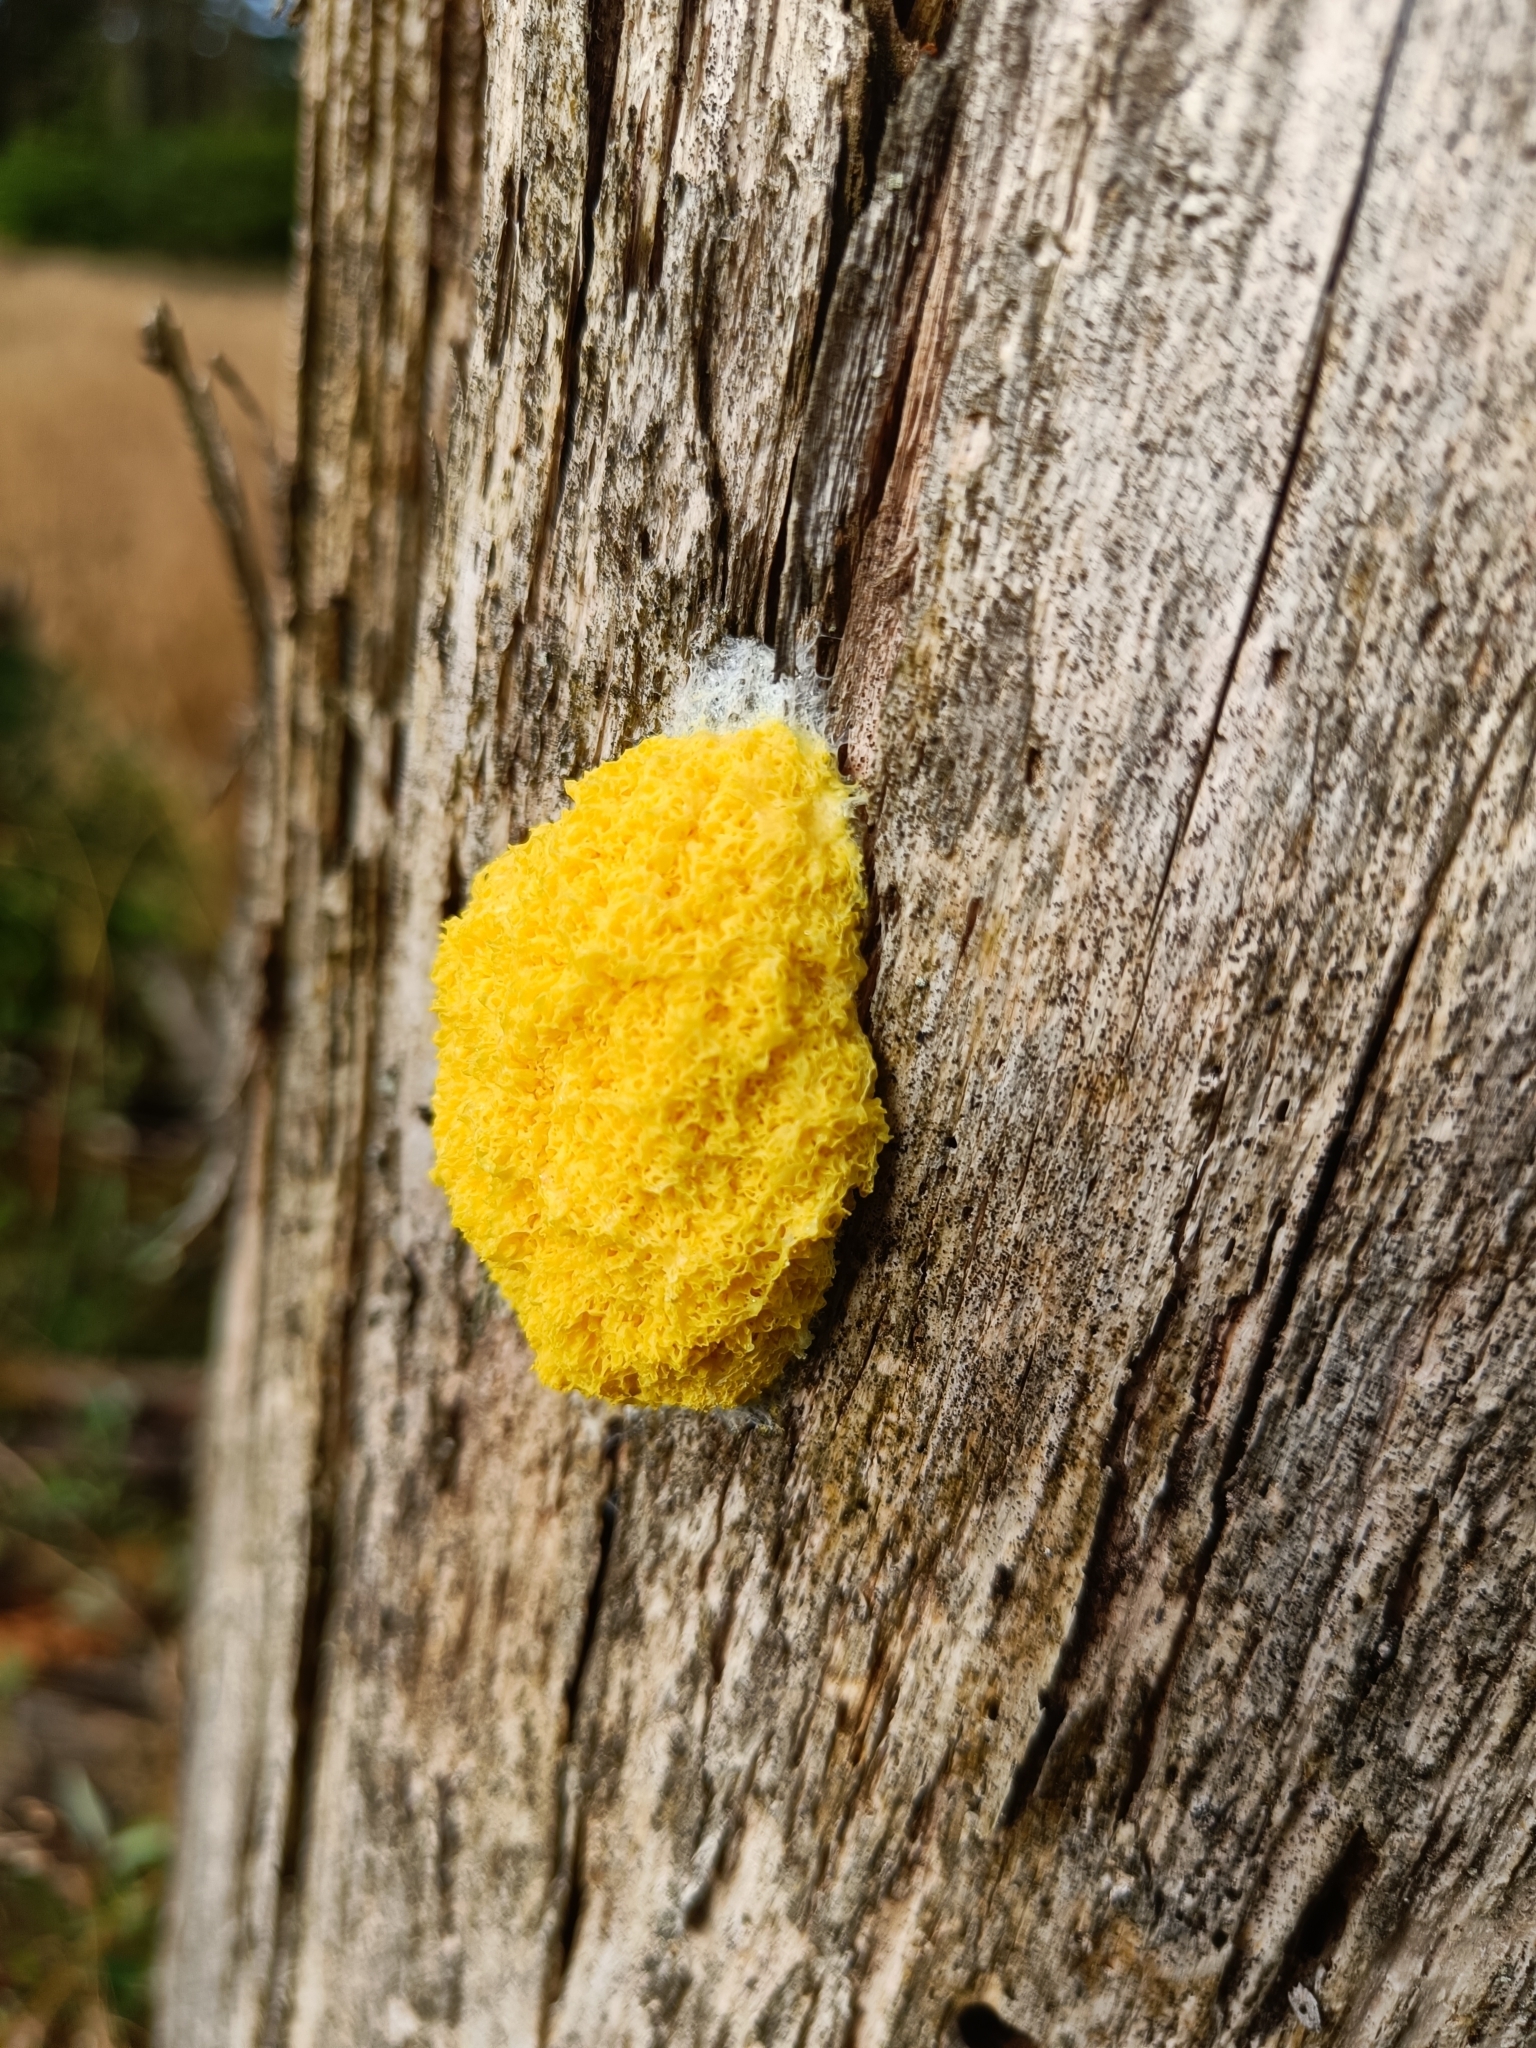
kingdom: Protozoa
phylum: Mycetozoa
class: Myxomycetes
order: Physarales
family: Physaraceae
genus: Fuligo
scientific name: Fuligo septica
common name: Dog vomit slime mold
